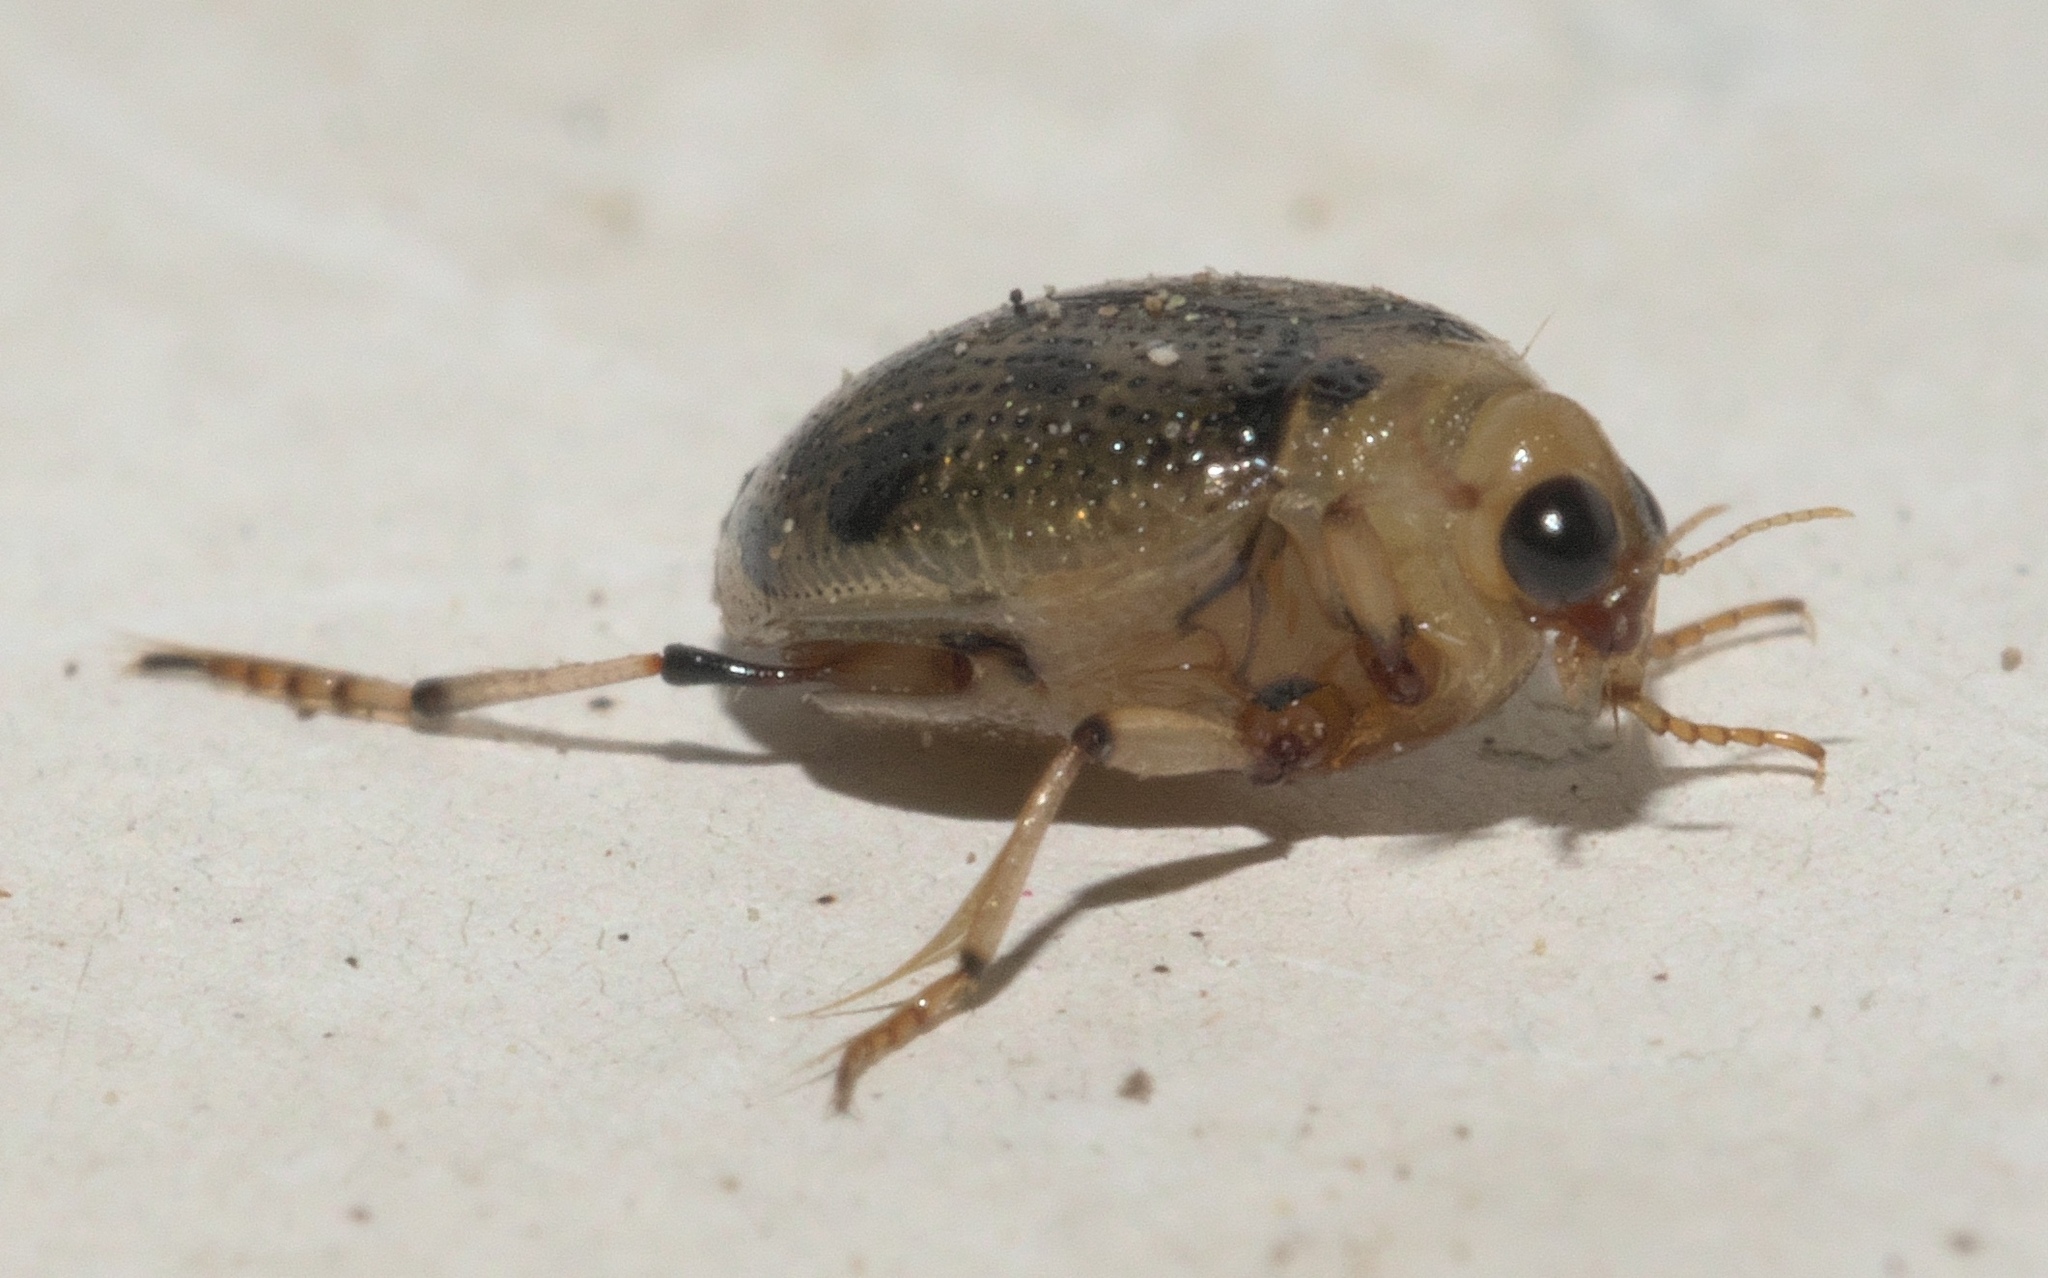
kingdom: Animalia
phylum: Arthropoda
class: Insecta
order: Coleoptera
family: Haliplidae
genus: Peltodytes
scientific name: Peltodytes sexmaculatus
